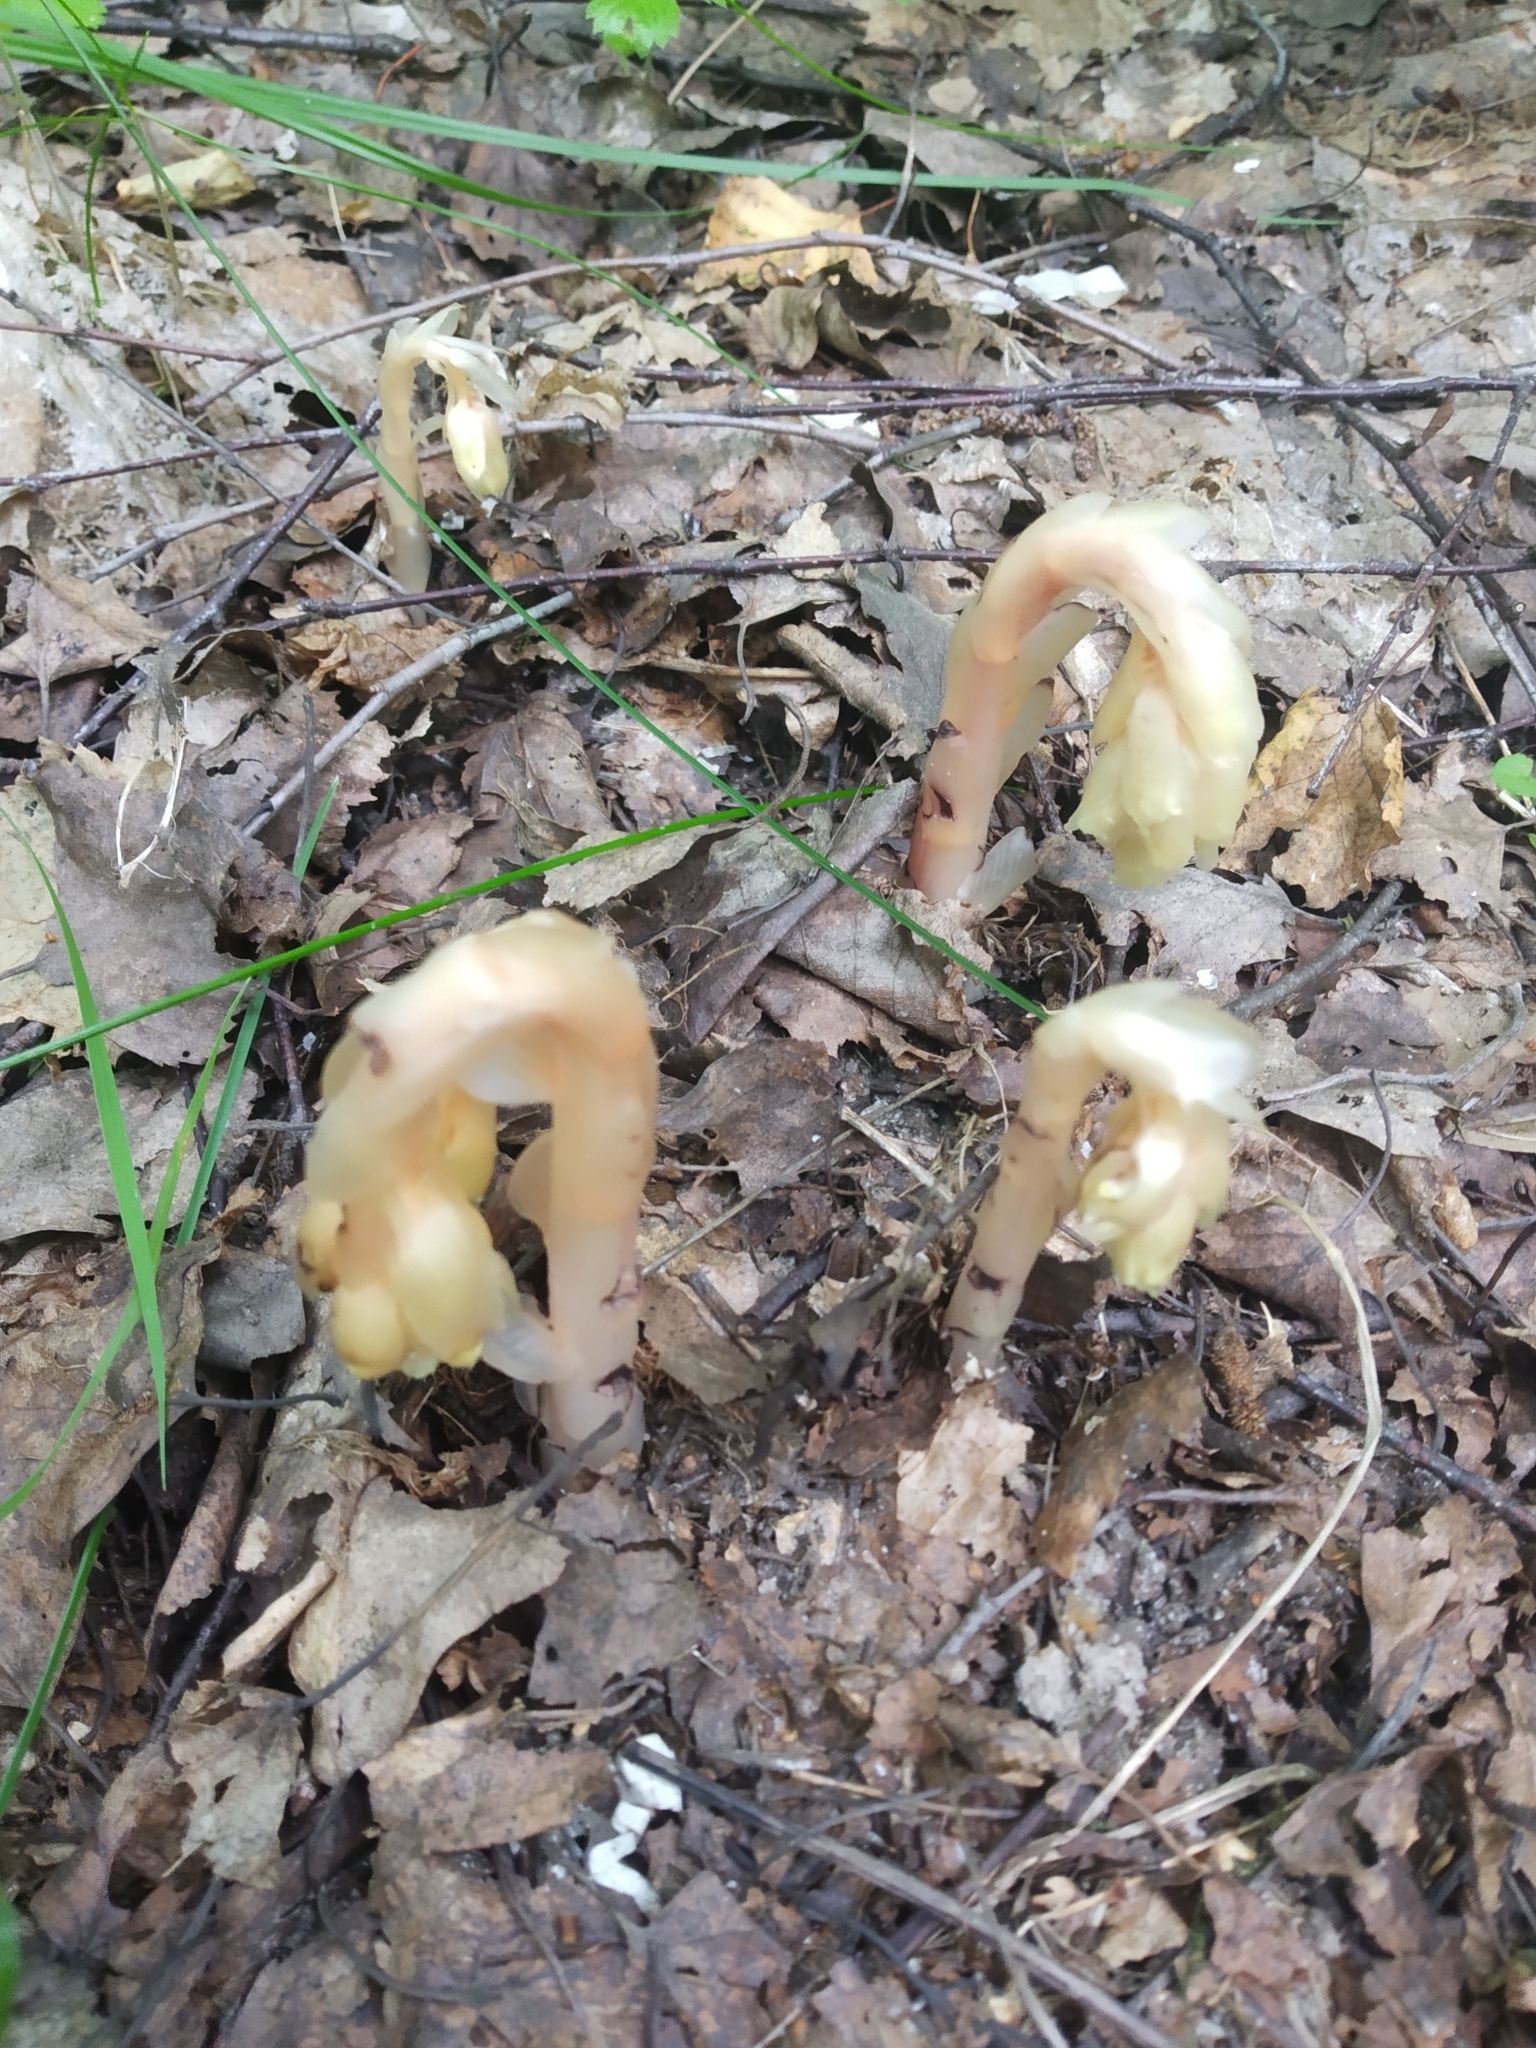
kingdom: Plantae
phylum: Tracheophyta
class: Magnoliopsida
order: Ericales
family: Ericaceae
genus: Hypopitys
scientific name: Hypopitys monotropa
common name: Yellow bird's-nest
